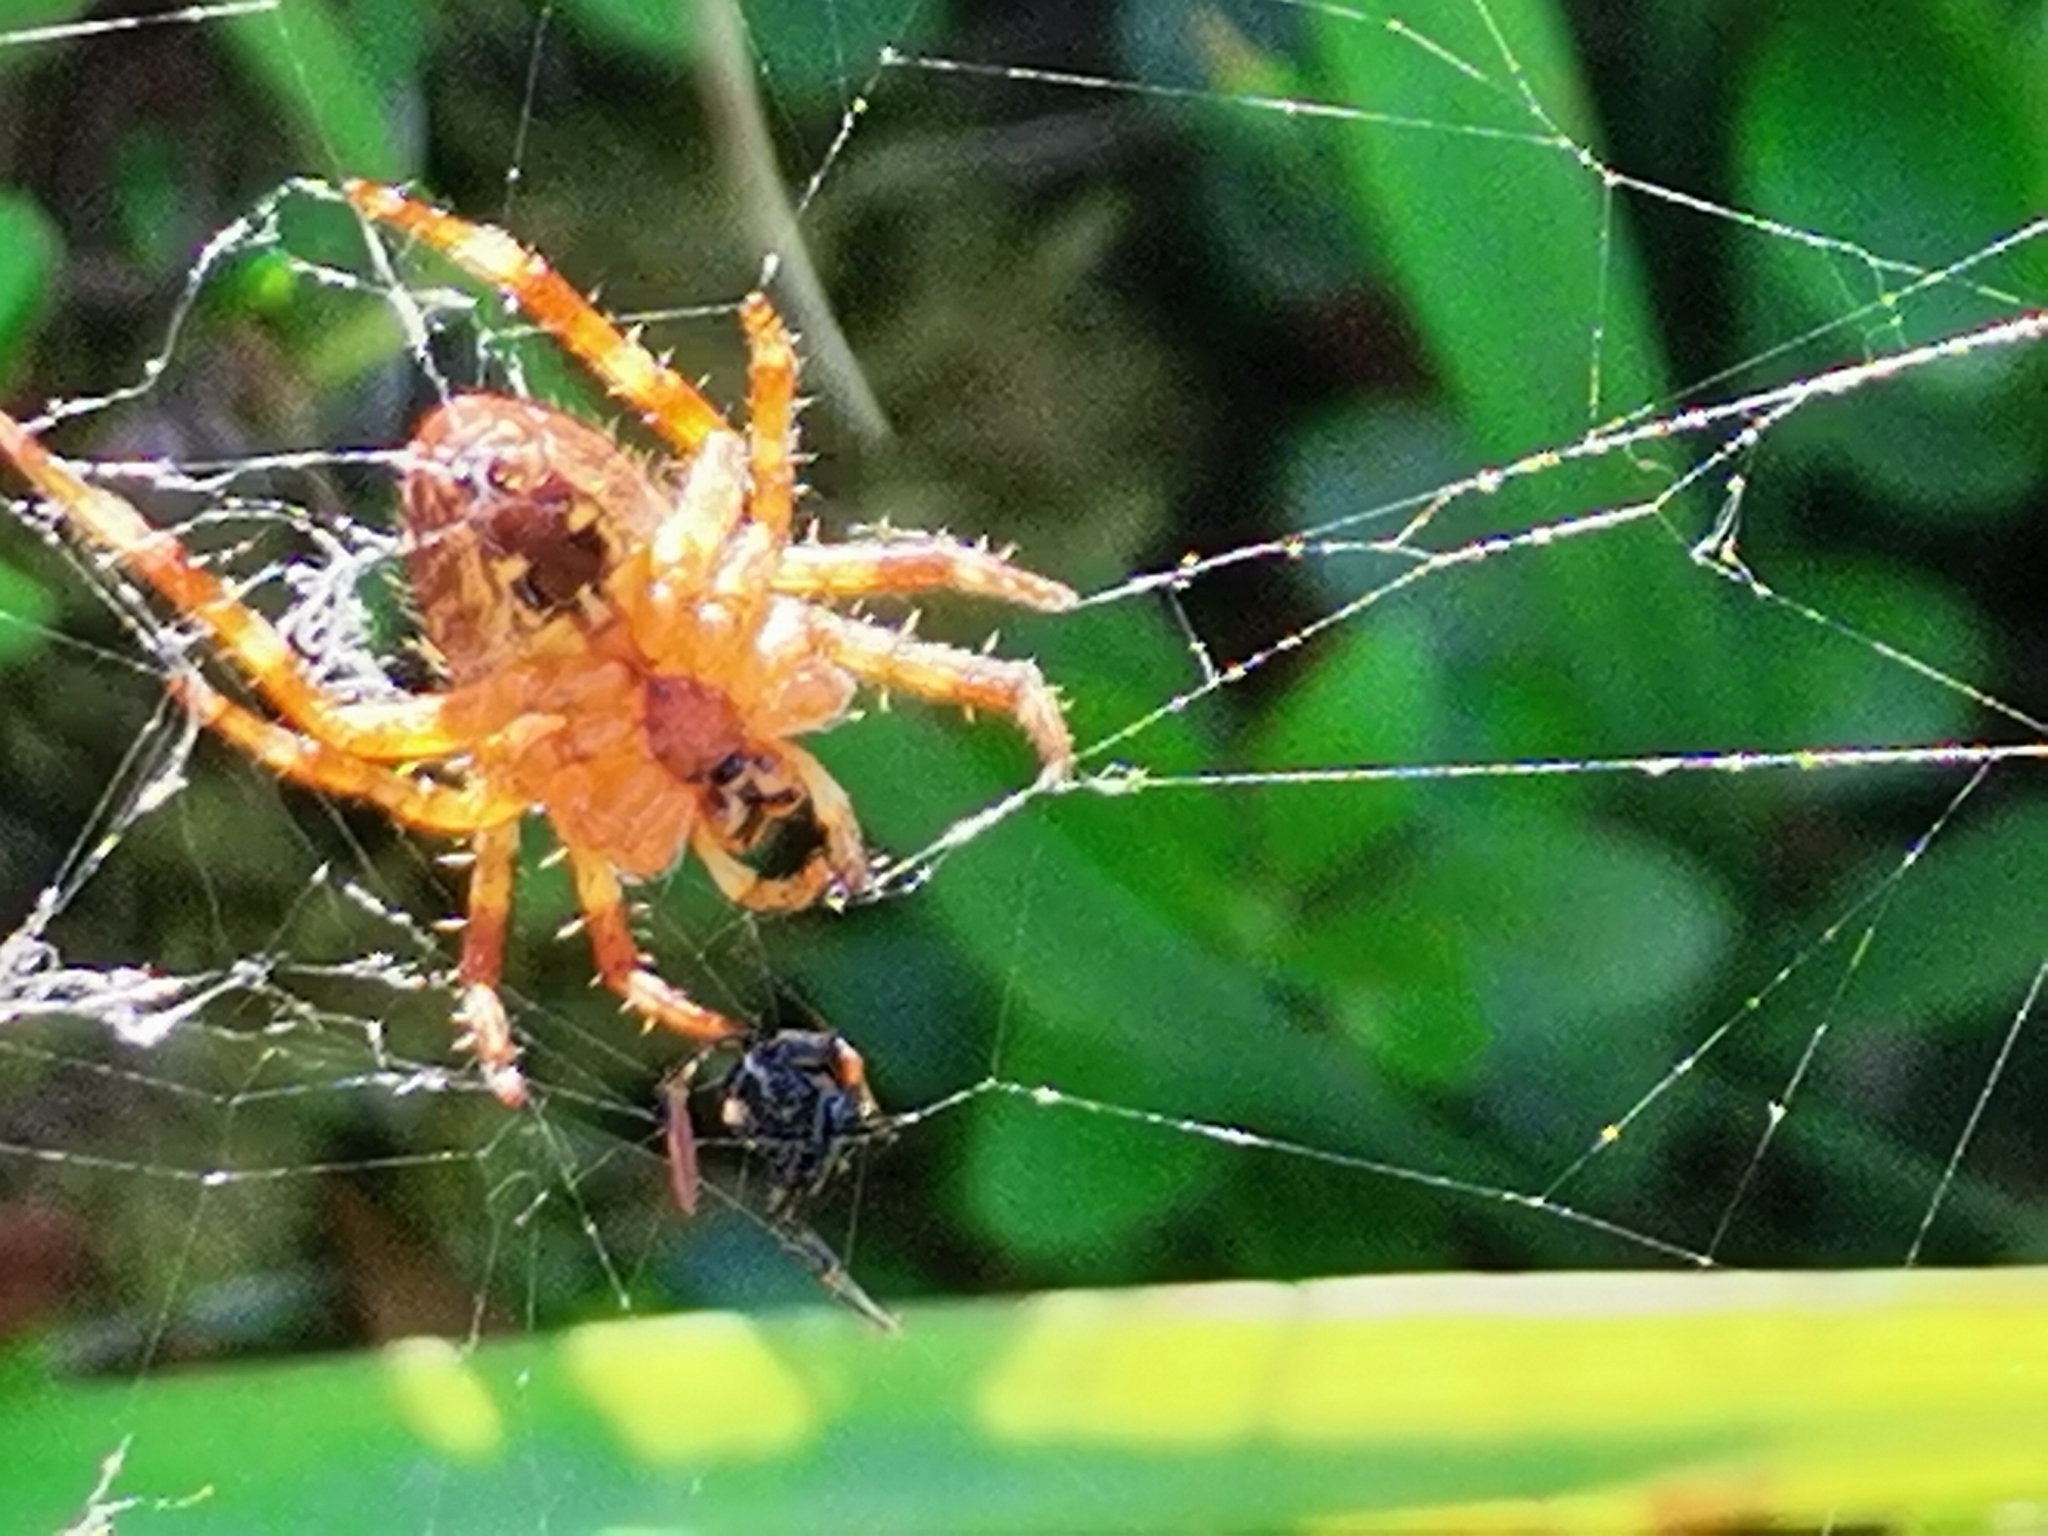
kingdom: Animalia
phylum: Arthropoda
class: Arachnida
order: Araneae
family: Araneidae
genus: Araneus
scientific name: Araneus diadematus
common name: Cross orbweaver
